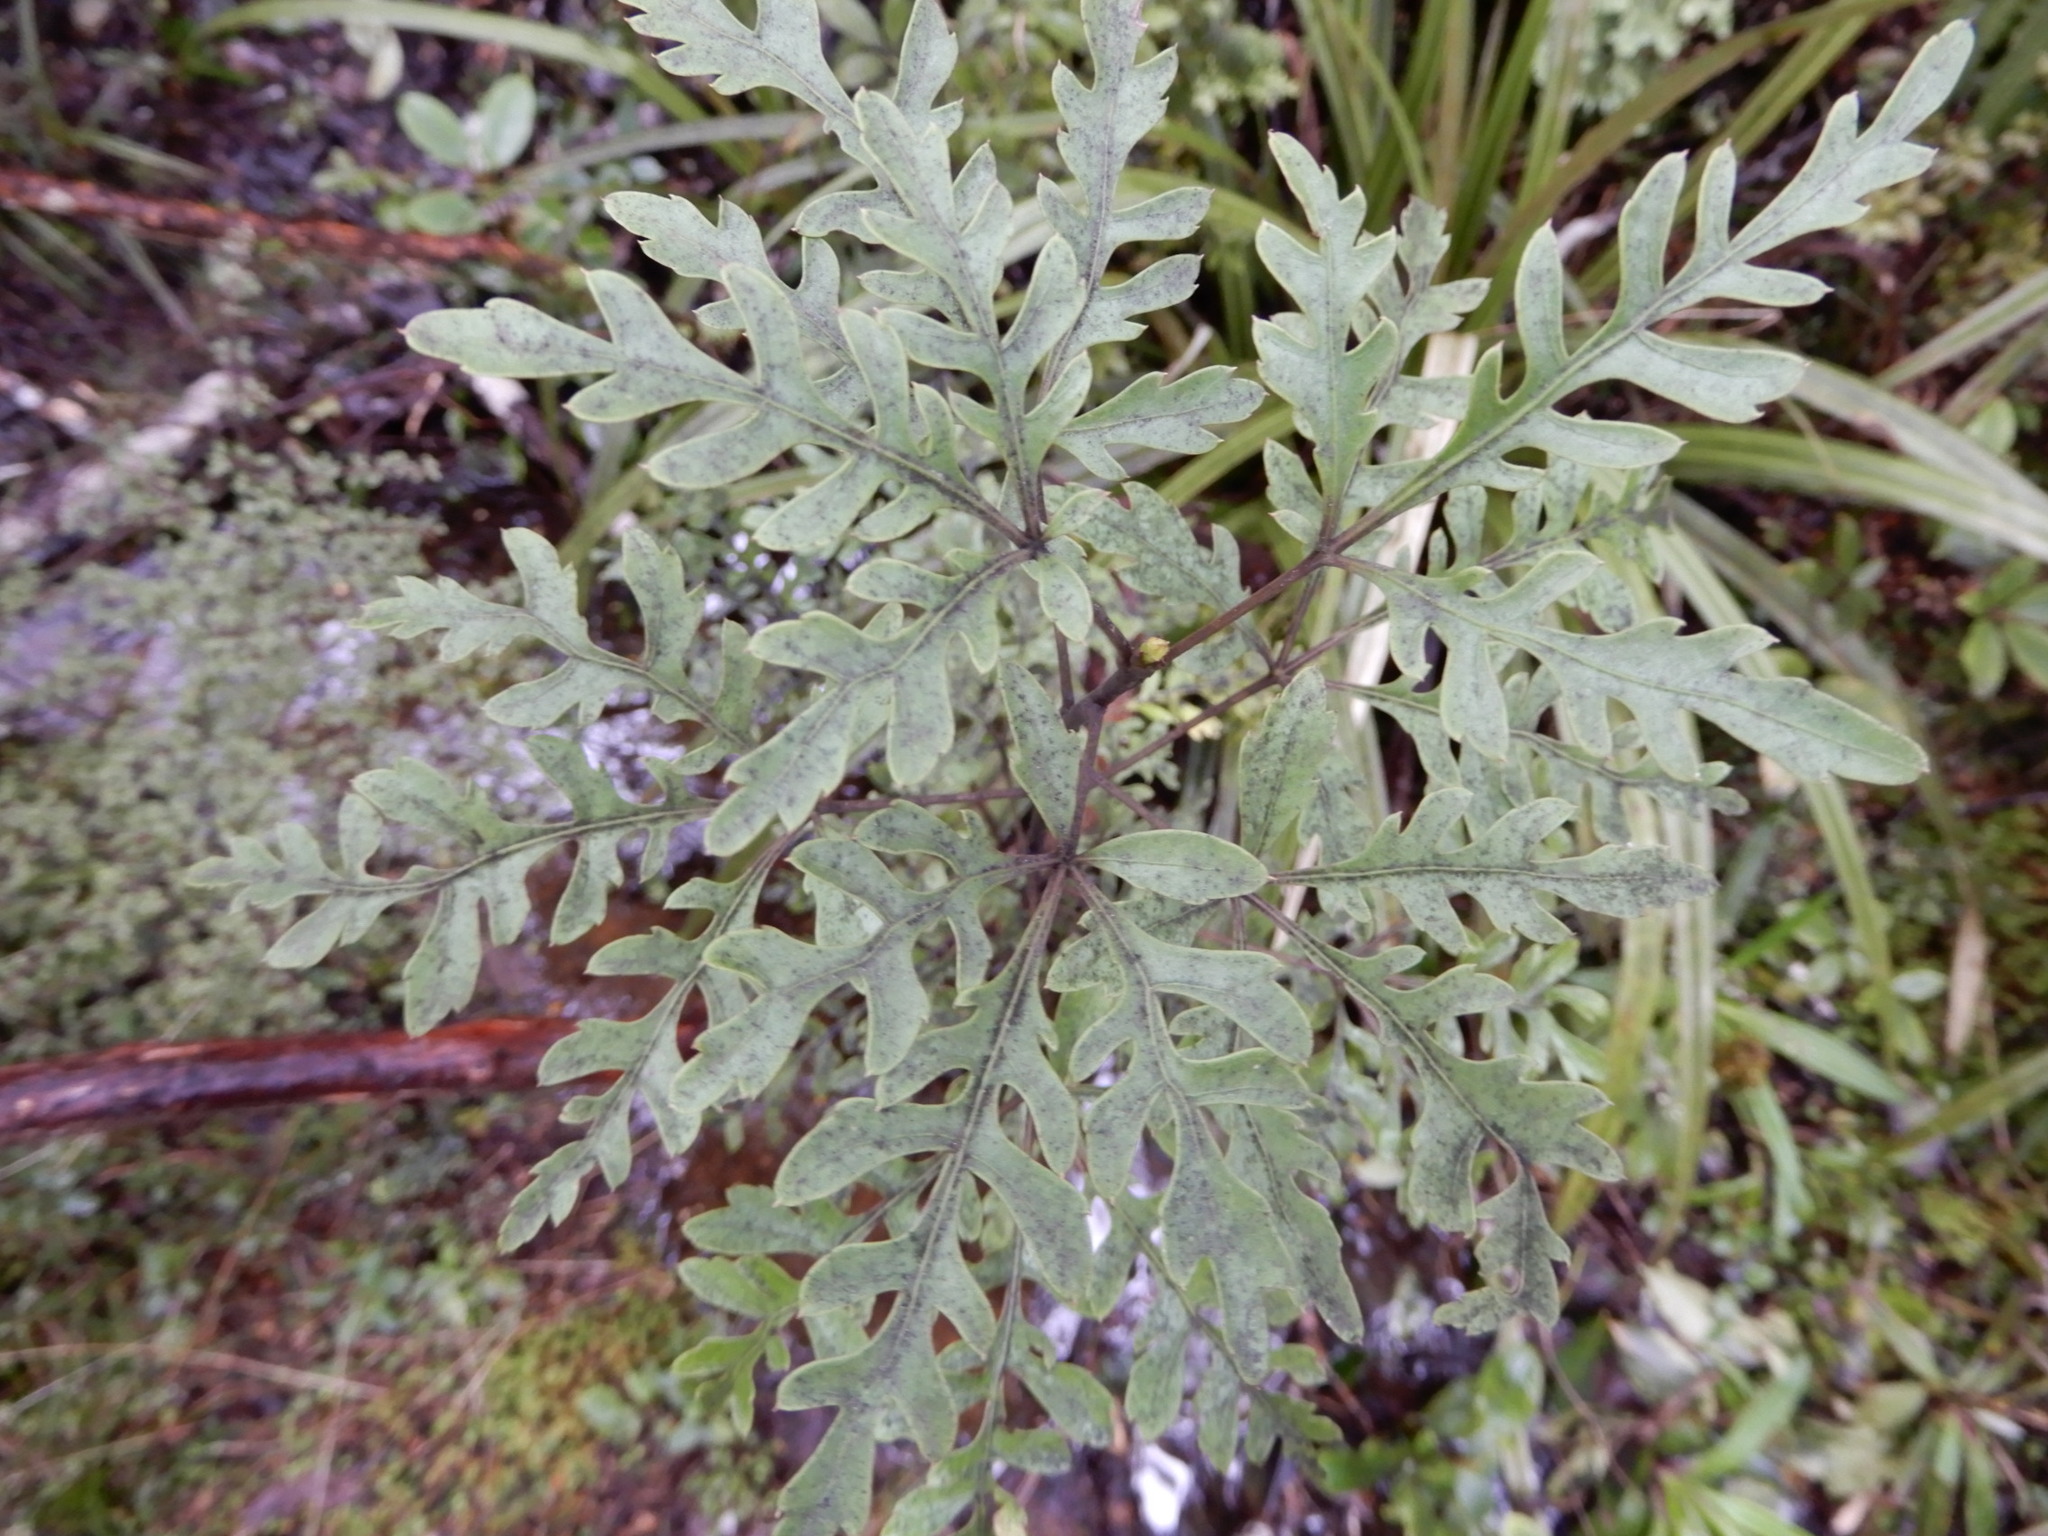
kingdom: Plantae
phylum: Tracheophyta
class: Magnoliopsida
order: Apiales
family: Araliaceae
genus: Raukaua
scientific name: Raukaua edgerleyi
